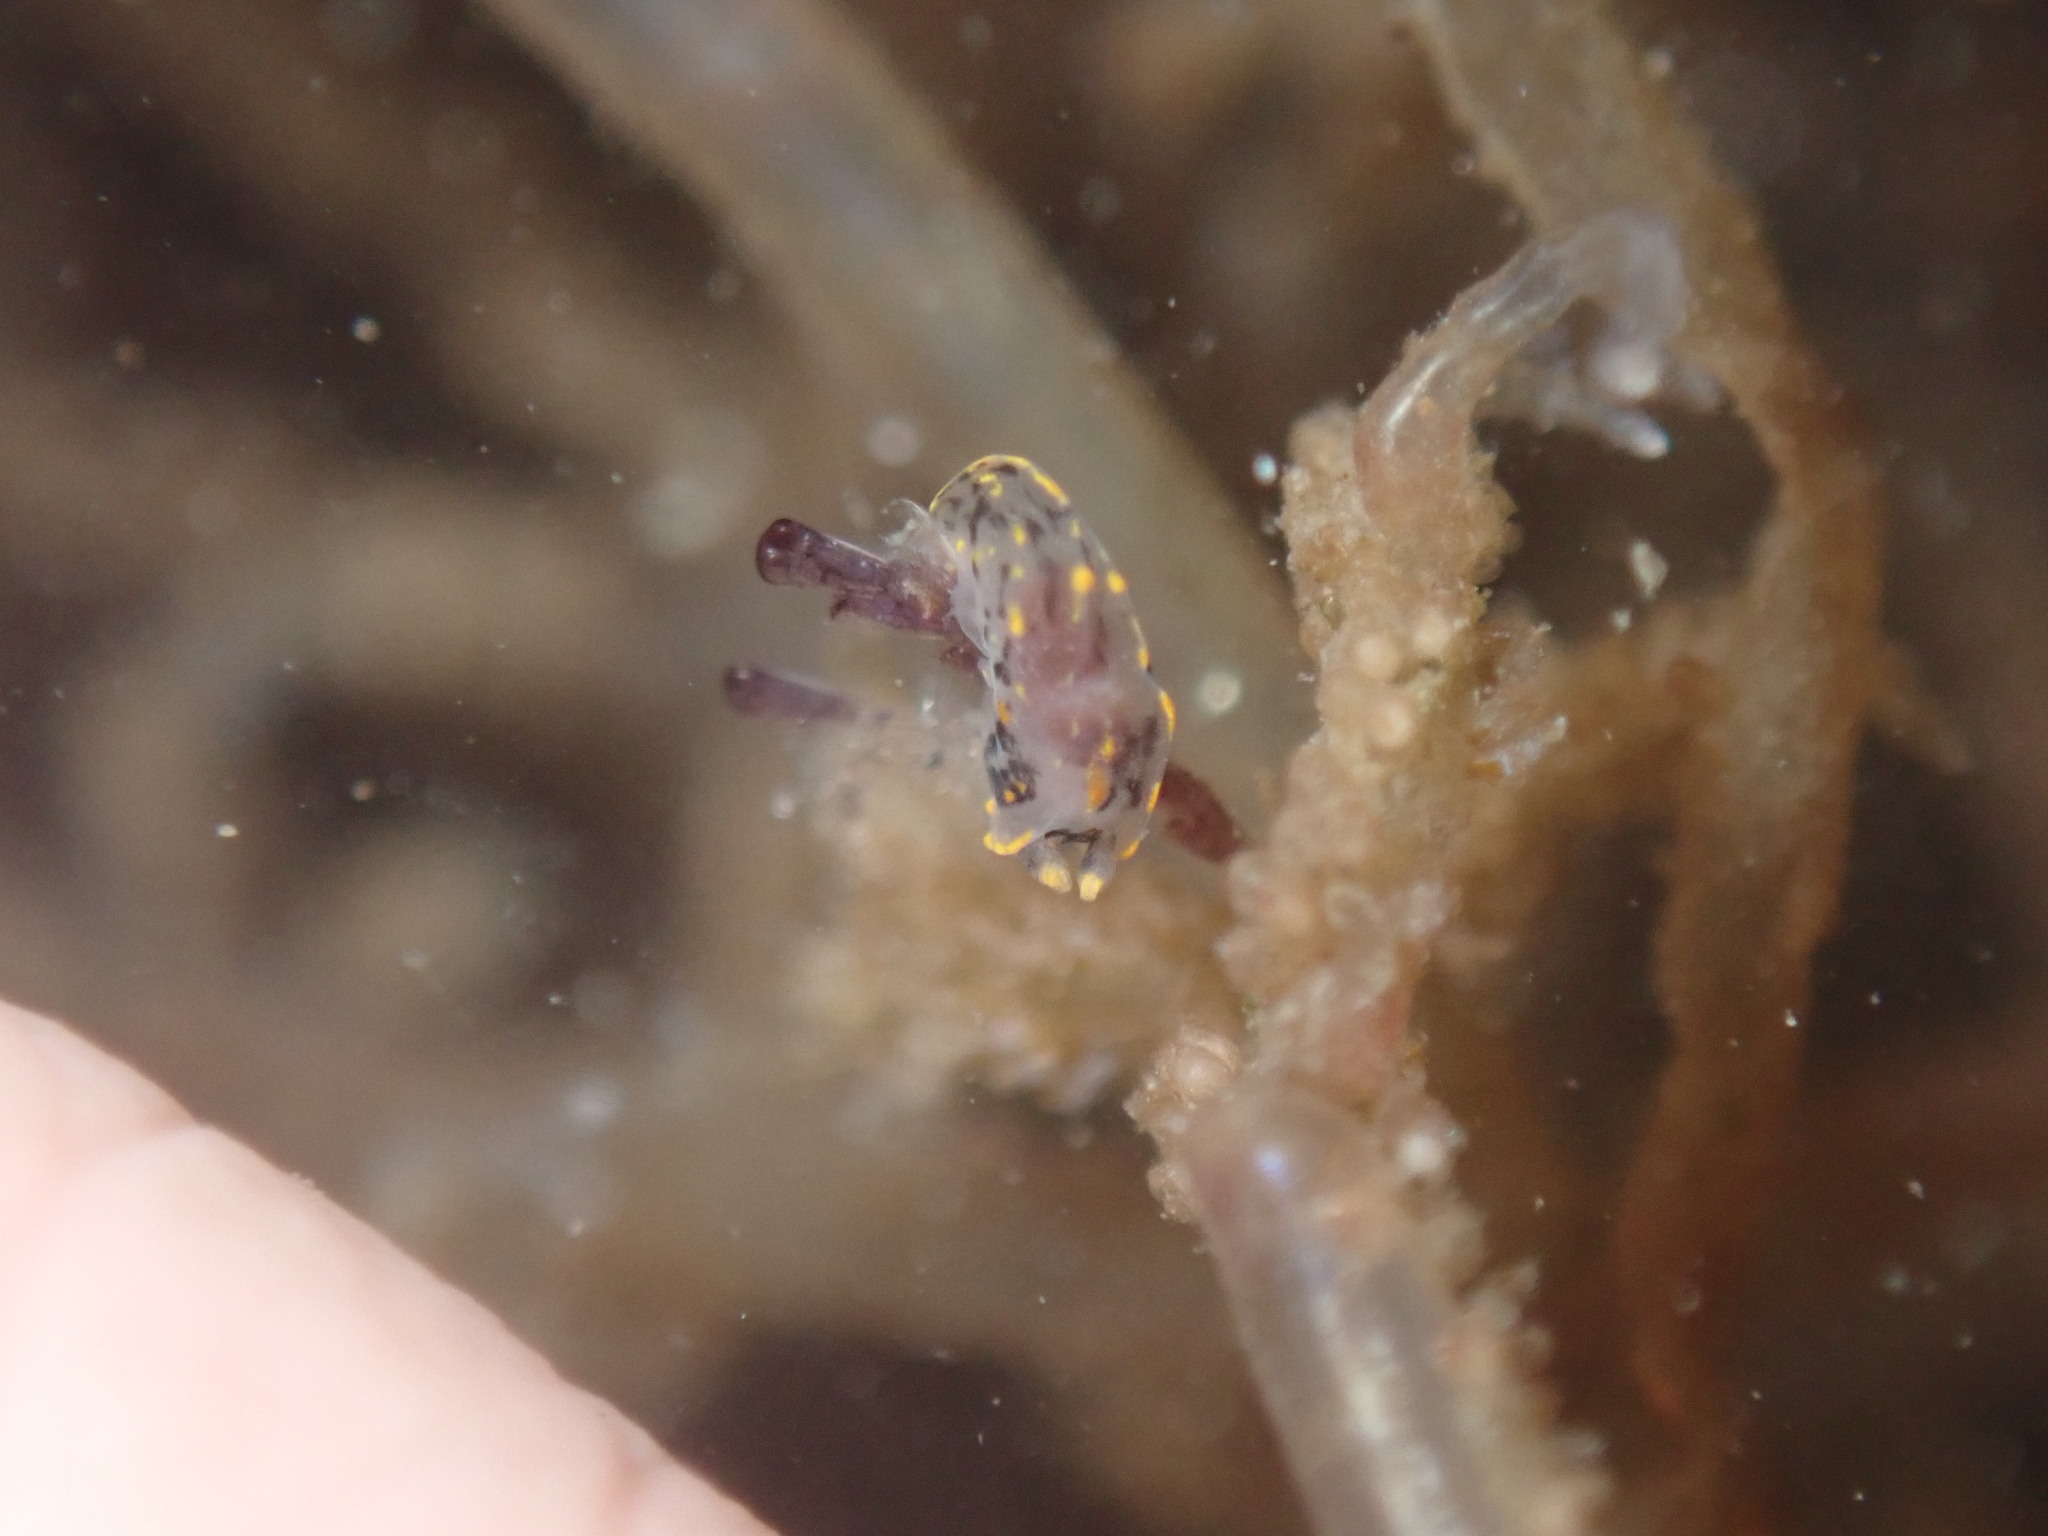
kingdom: Animalia
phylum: Mollusca
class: Gastropoda
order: Nudibranchia
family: Polyceridae
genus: Polycera
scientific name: Polycera atra
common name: Orange-spike polycera
